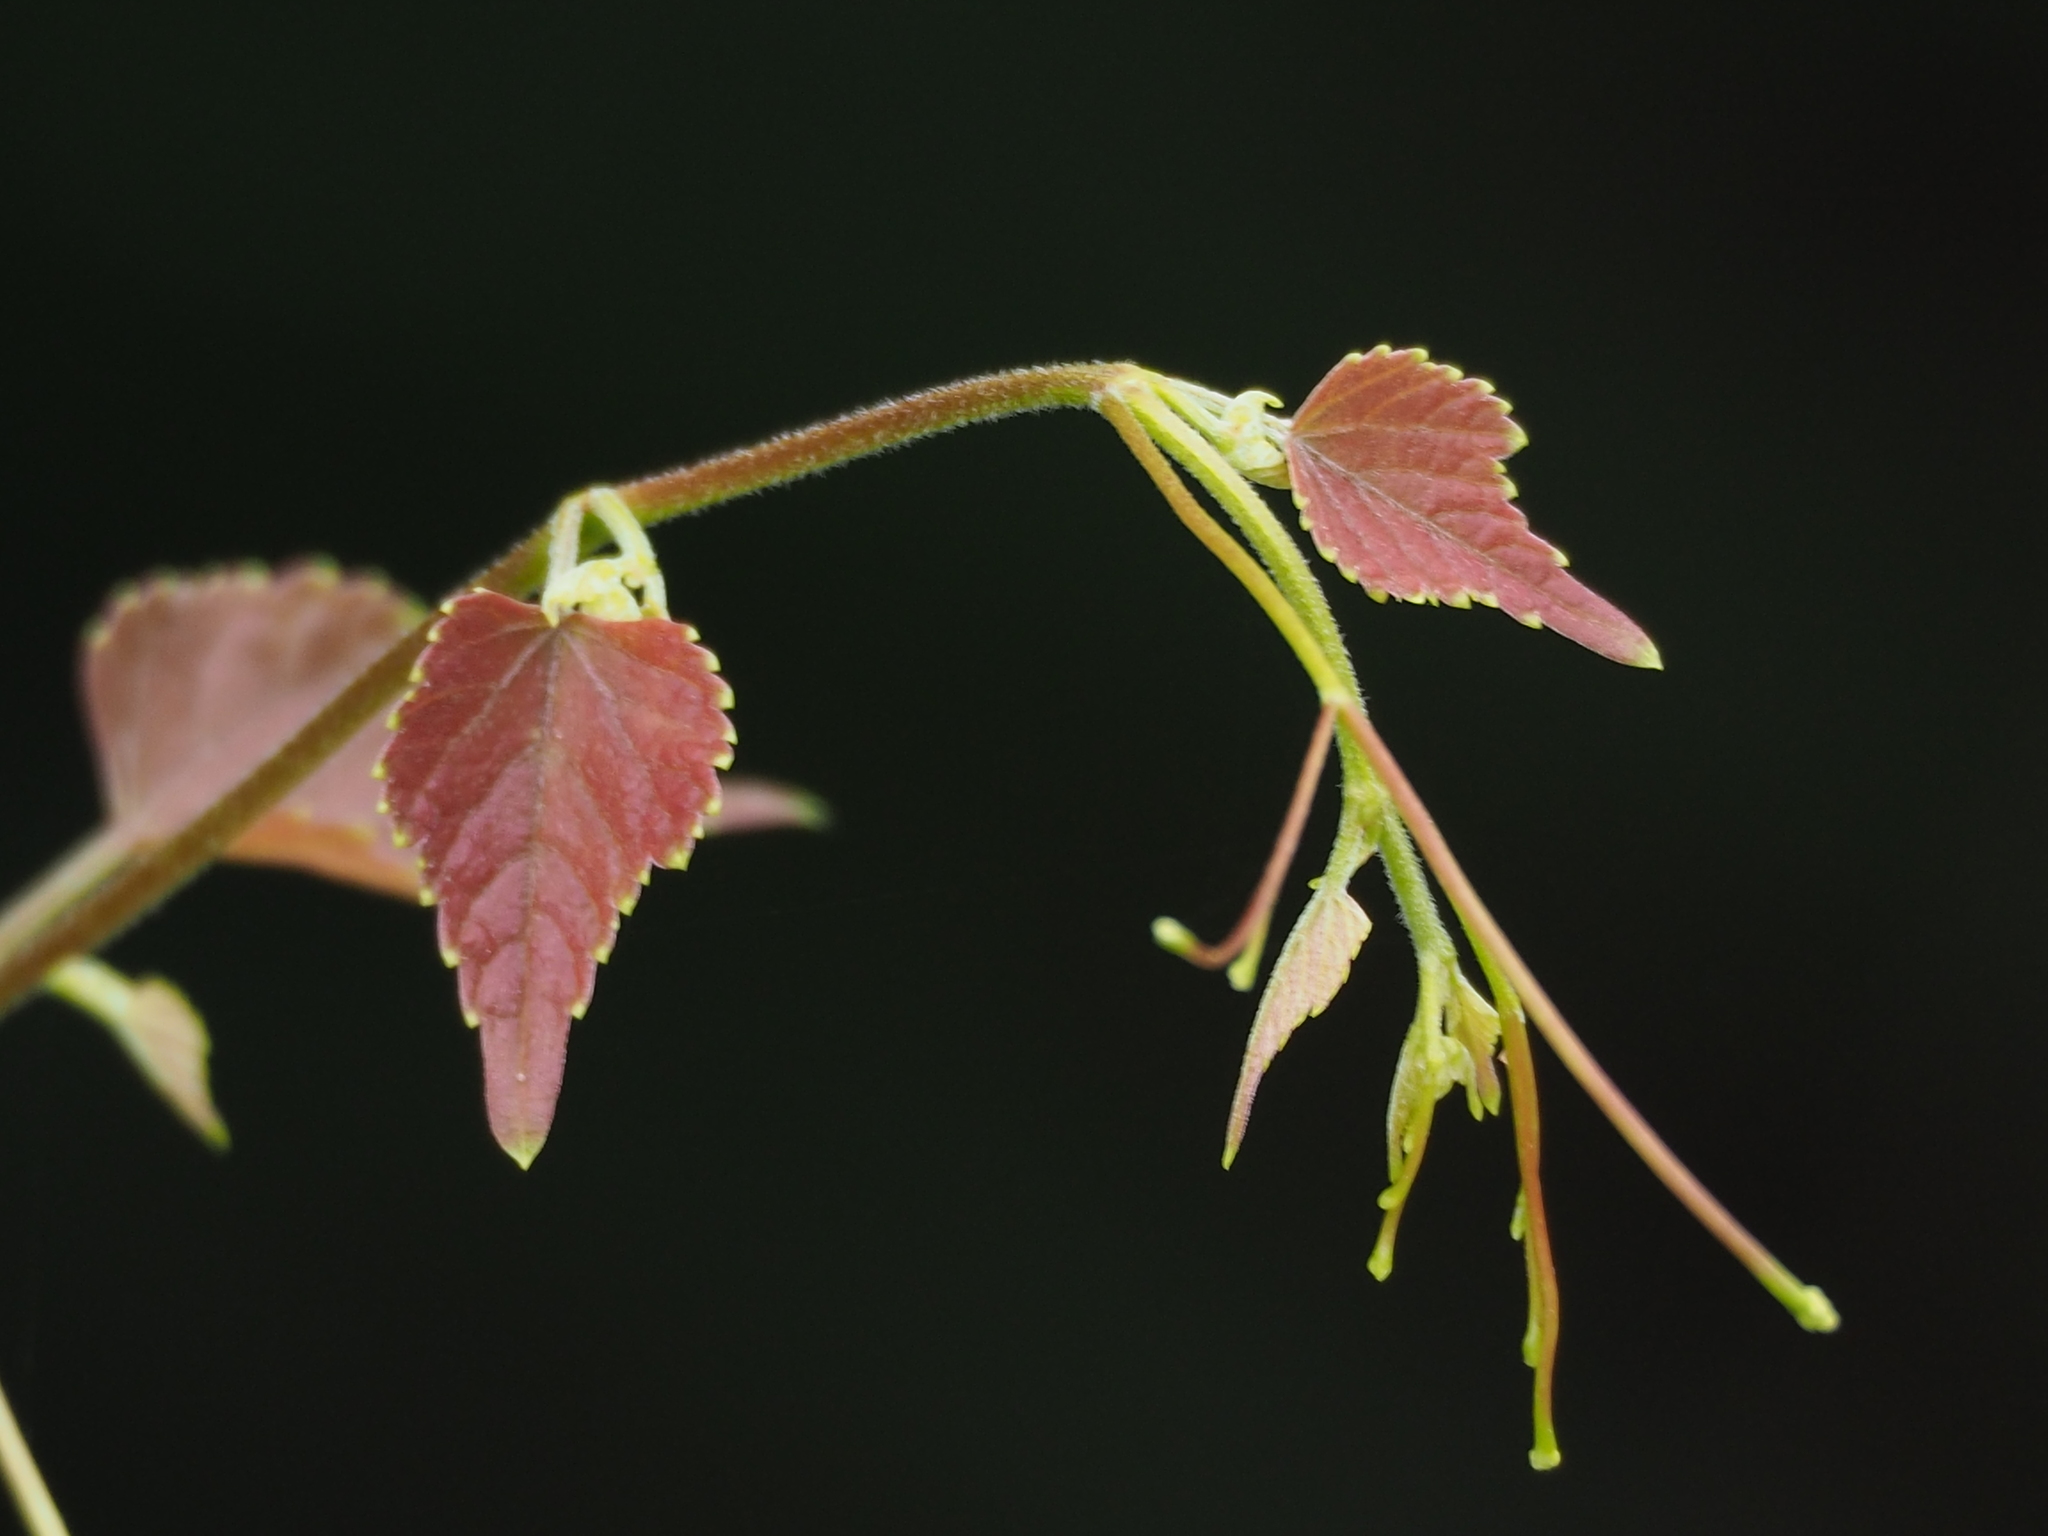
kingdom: Plantae
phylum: Tracheophyta
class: Magnoliopsida
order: Vitales
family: Vitaceae
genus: Ampelopsis
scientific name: Ampelopsis glandulosa
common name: Amur peppervine
